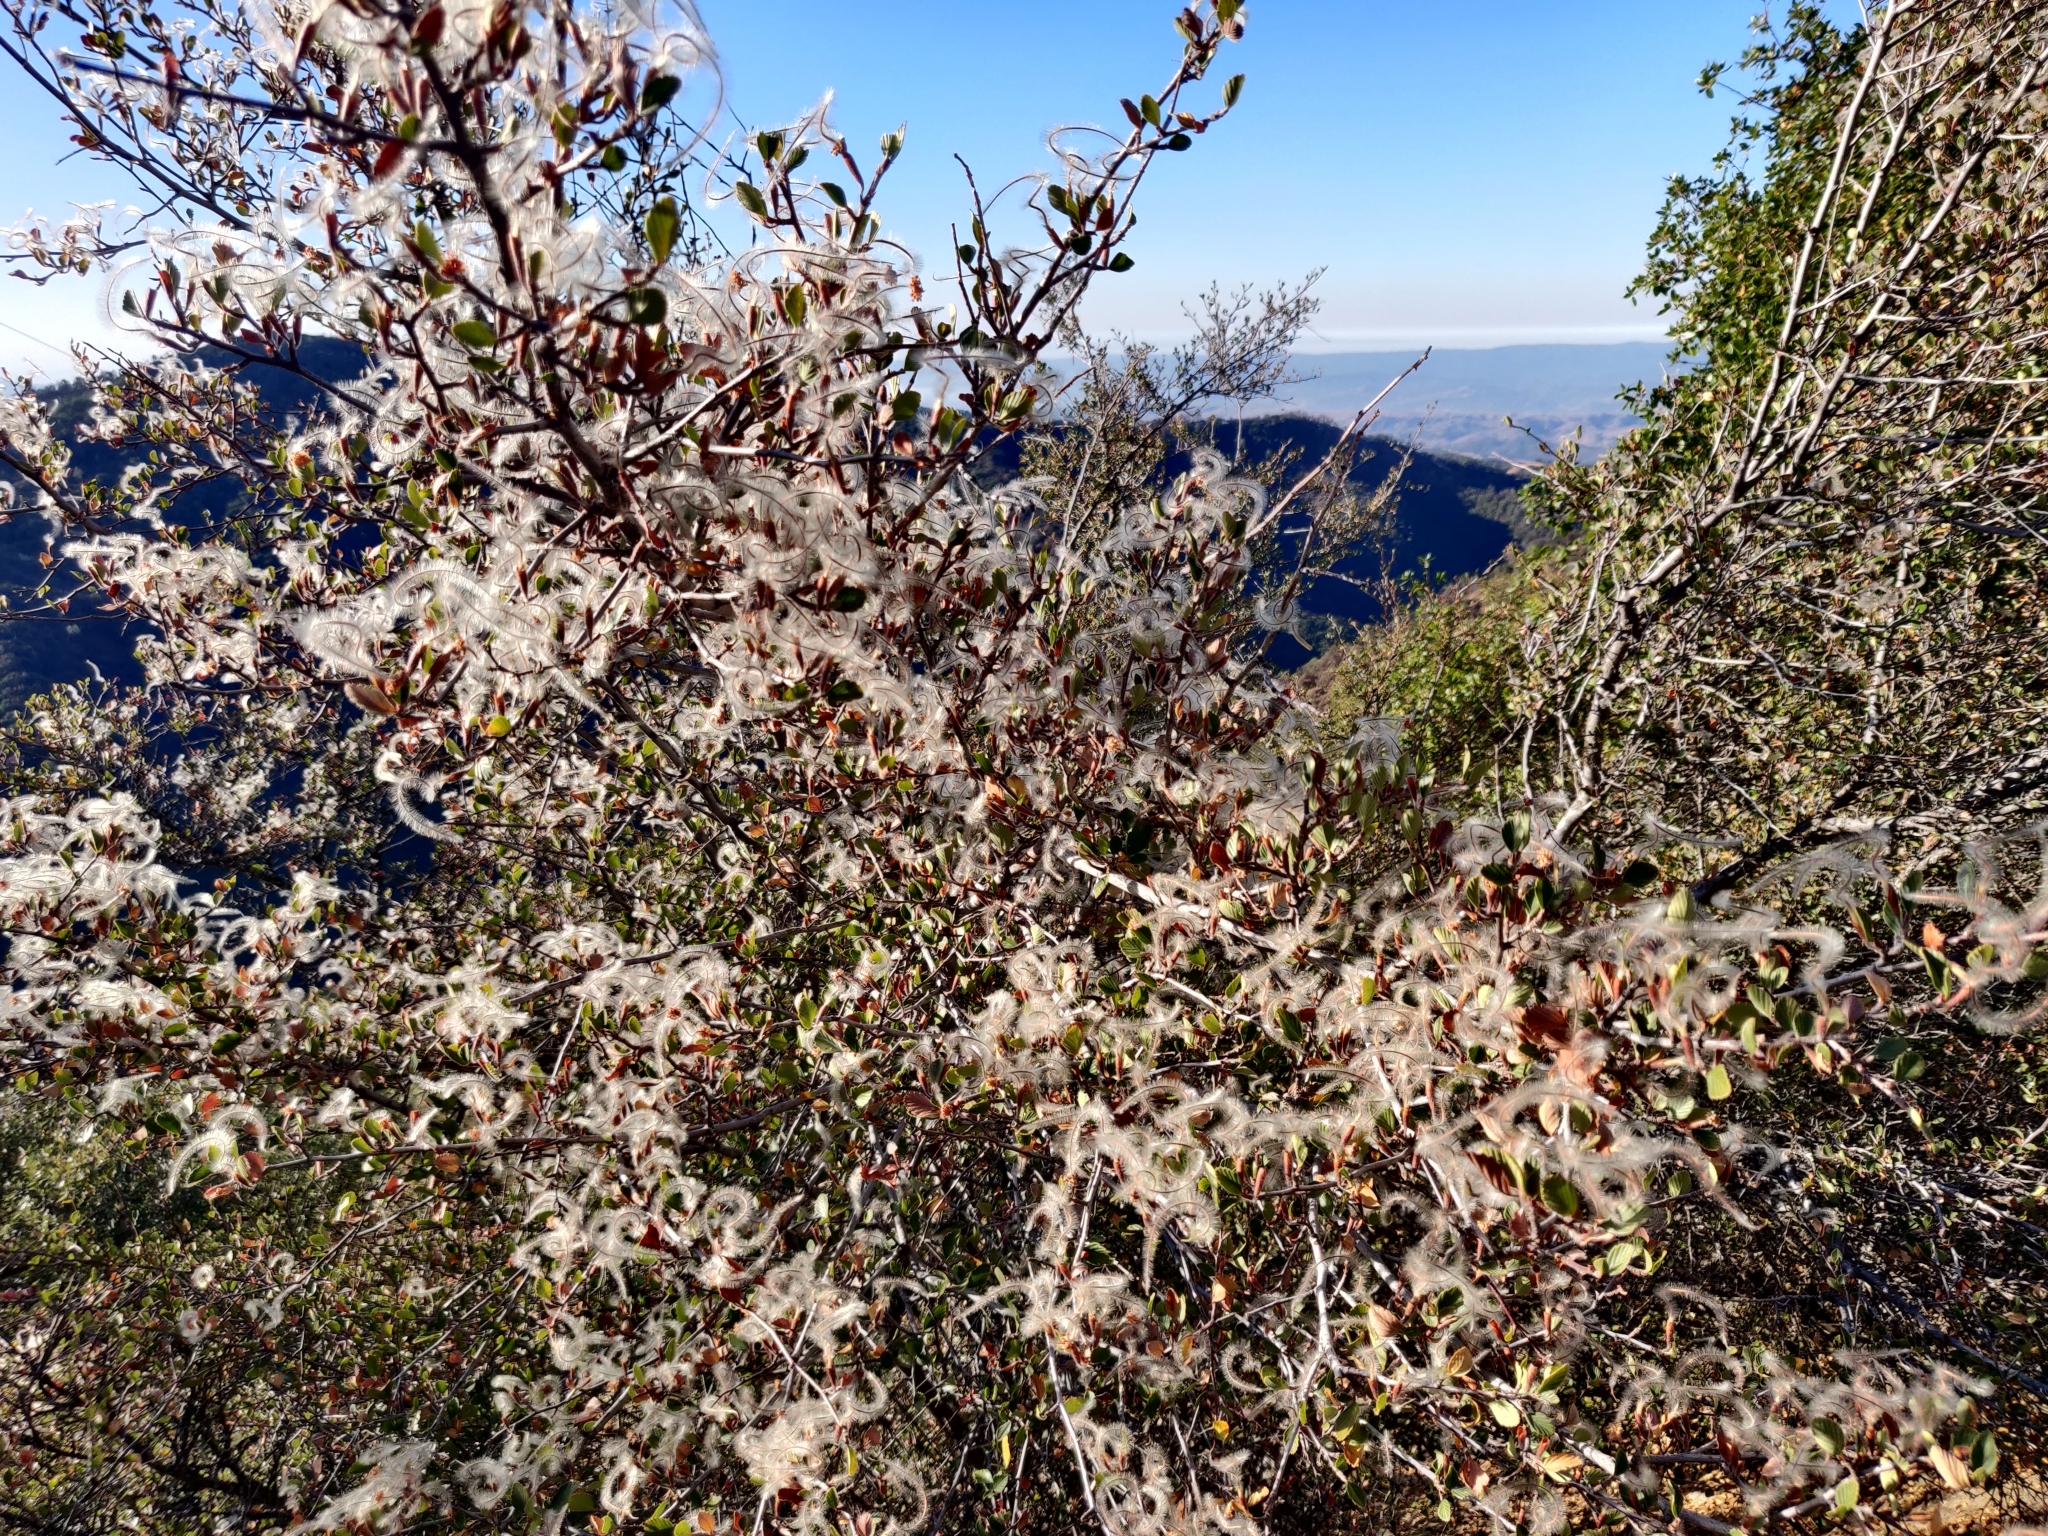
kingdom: Plantae
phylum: Tracheophyta
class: Magnoliopsida
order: Rosales
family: Rosaceae
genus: Cercocarpus
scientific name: Cercocarpus betuloides
